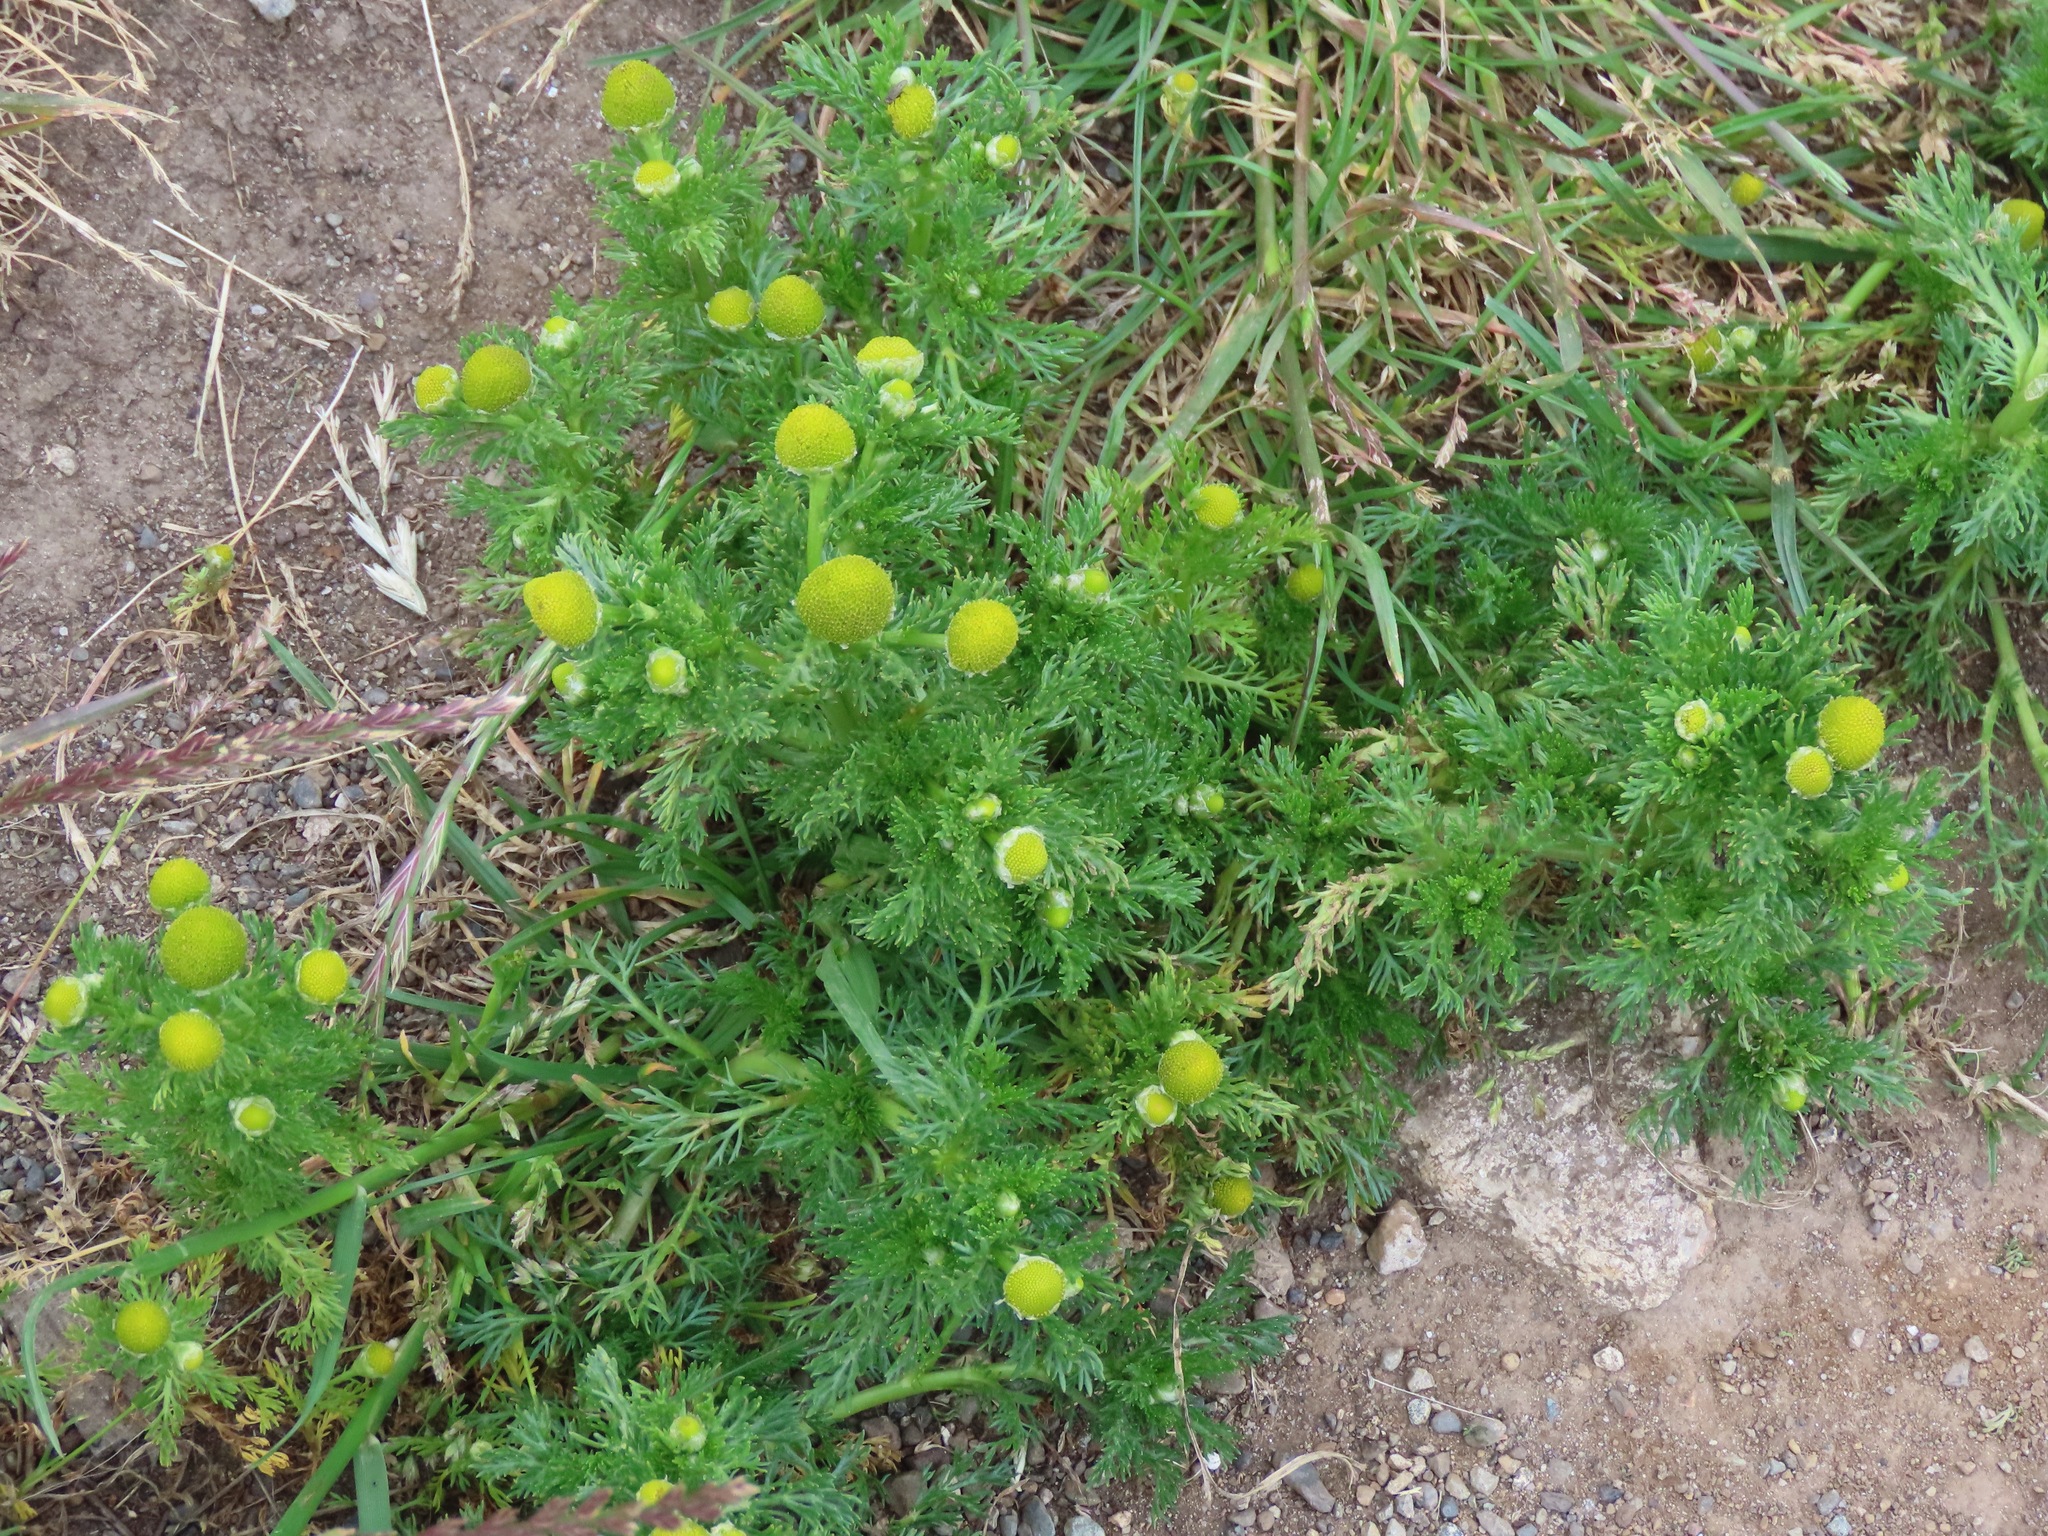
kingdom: Plantae
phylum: Tracheophyta
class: Magnoliopsida
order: Asterales
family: Asteraceae
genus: Matricaria
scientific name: Matricaria discoidea
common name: Disc mayweed
